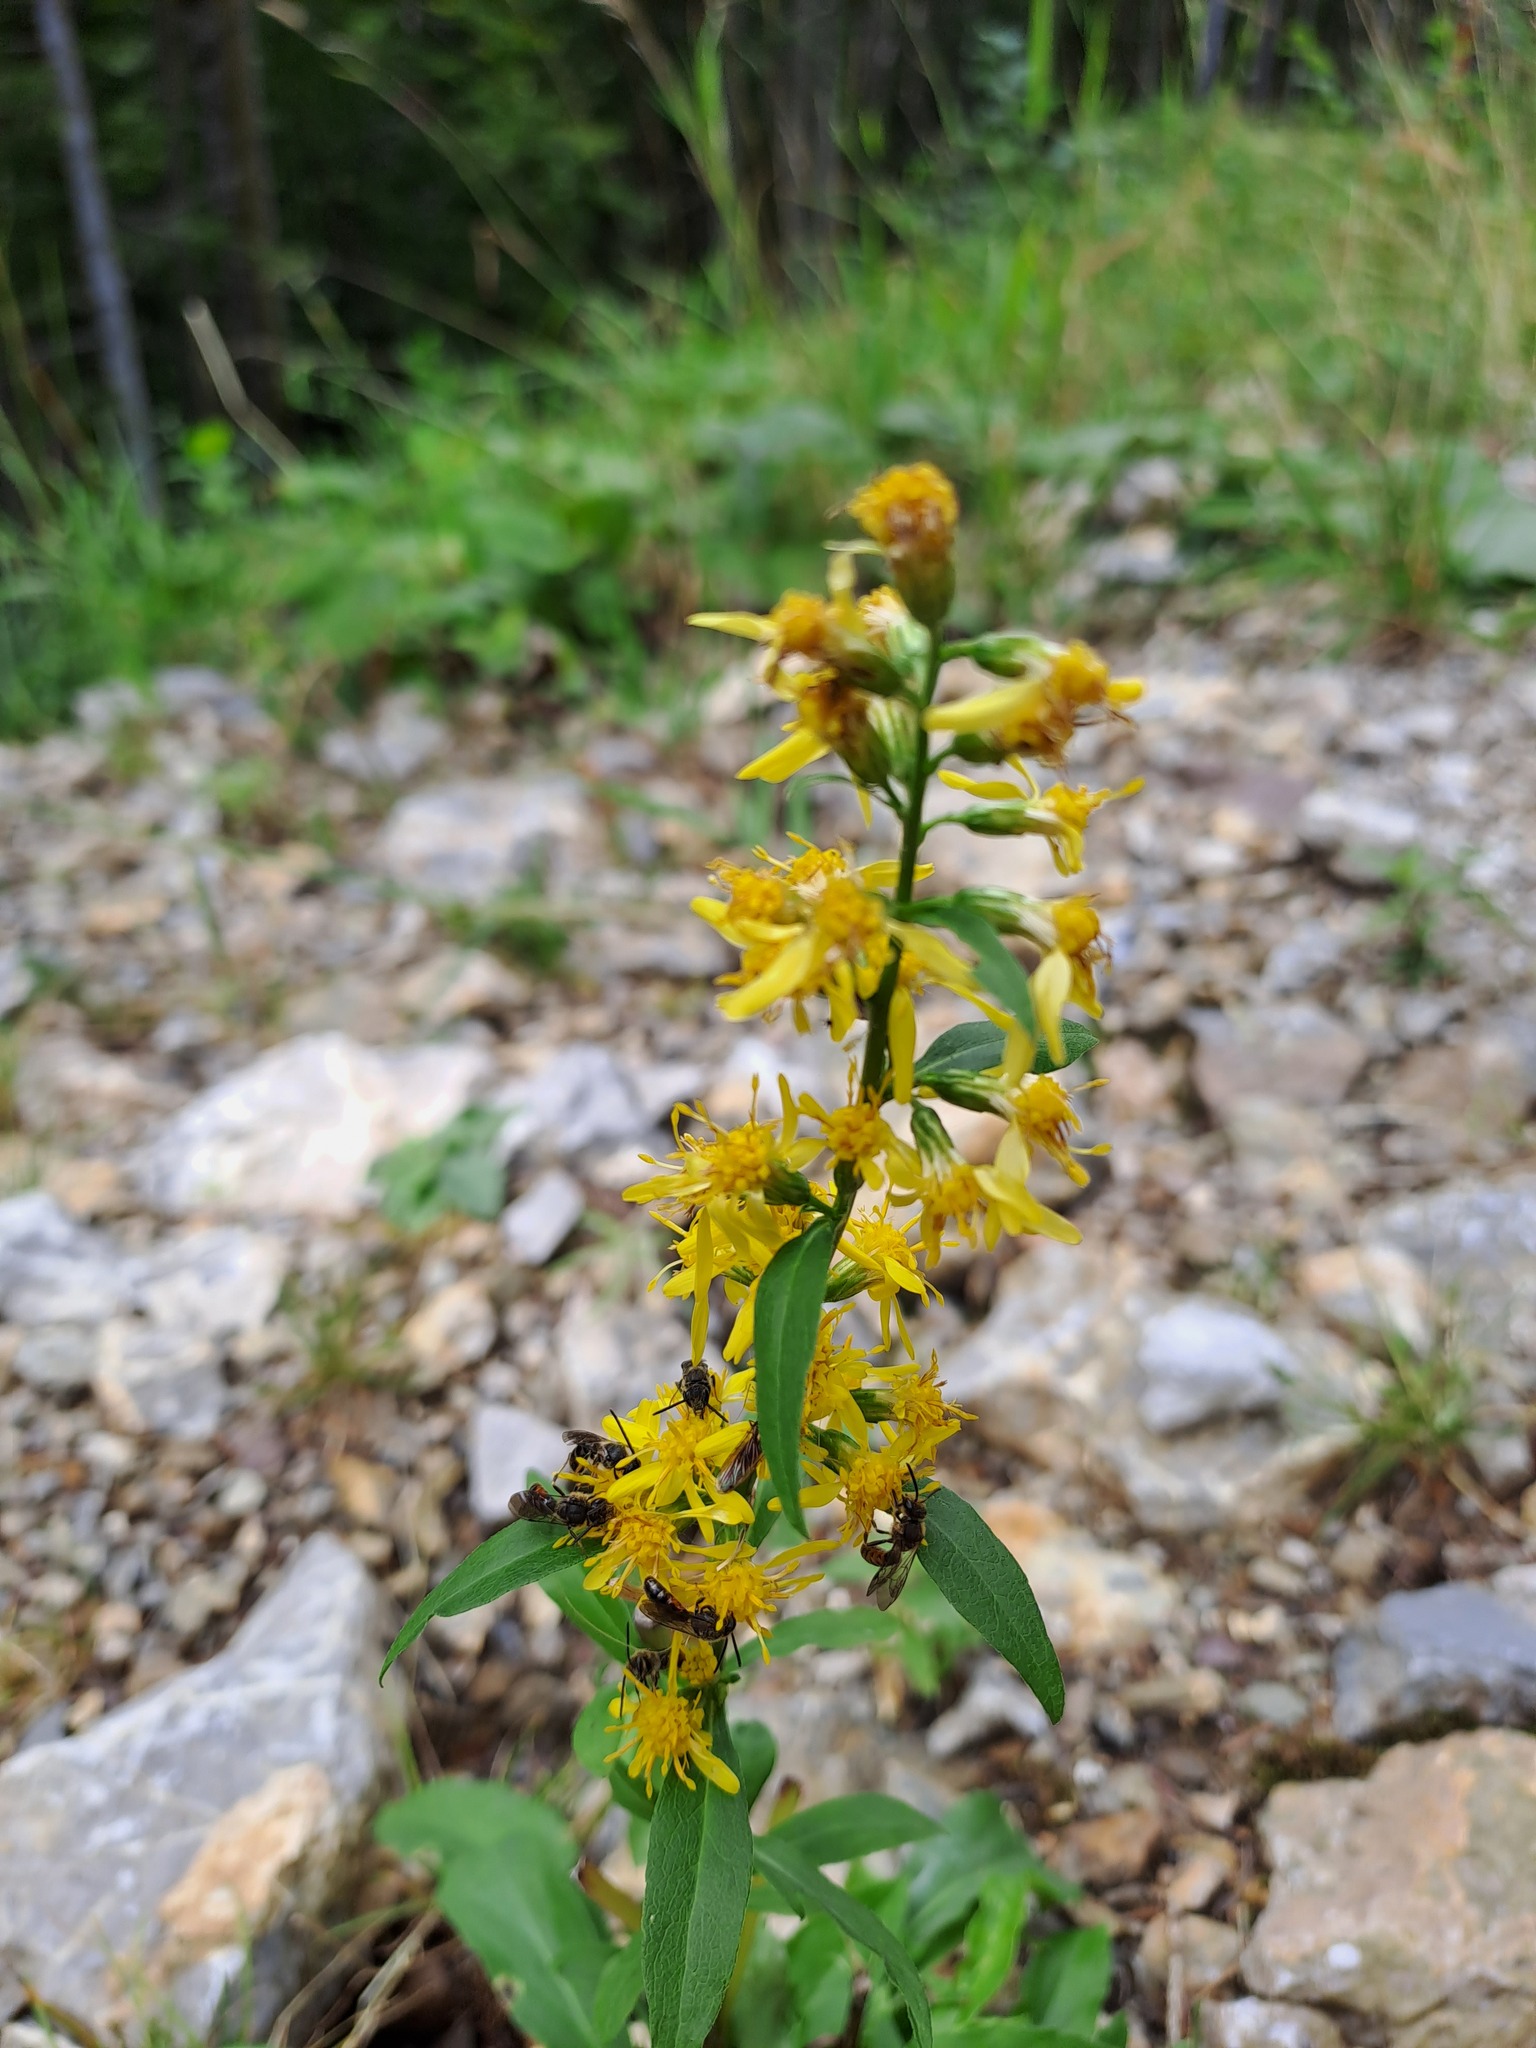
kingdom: Plantae
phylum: Tracheophyta
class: Magnoliopsida
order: Asterales
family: Asteraceae
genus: Solidago
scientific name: Solidago virgaurea
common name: Goldenrod
